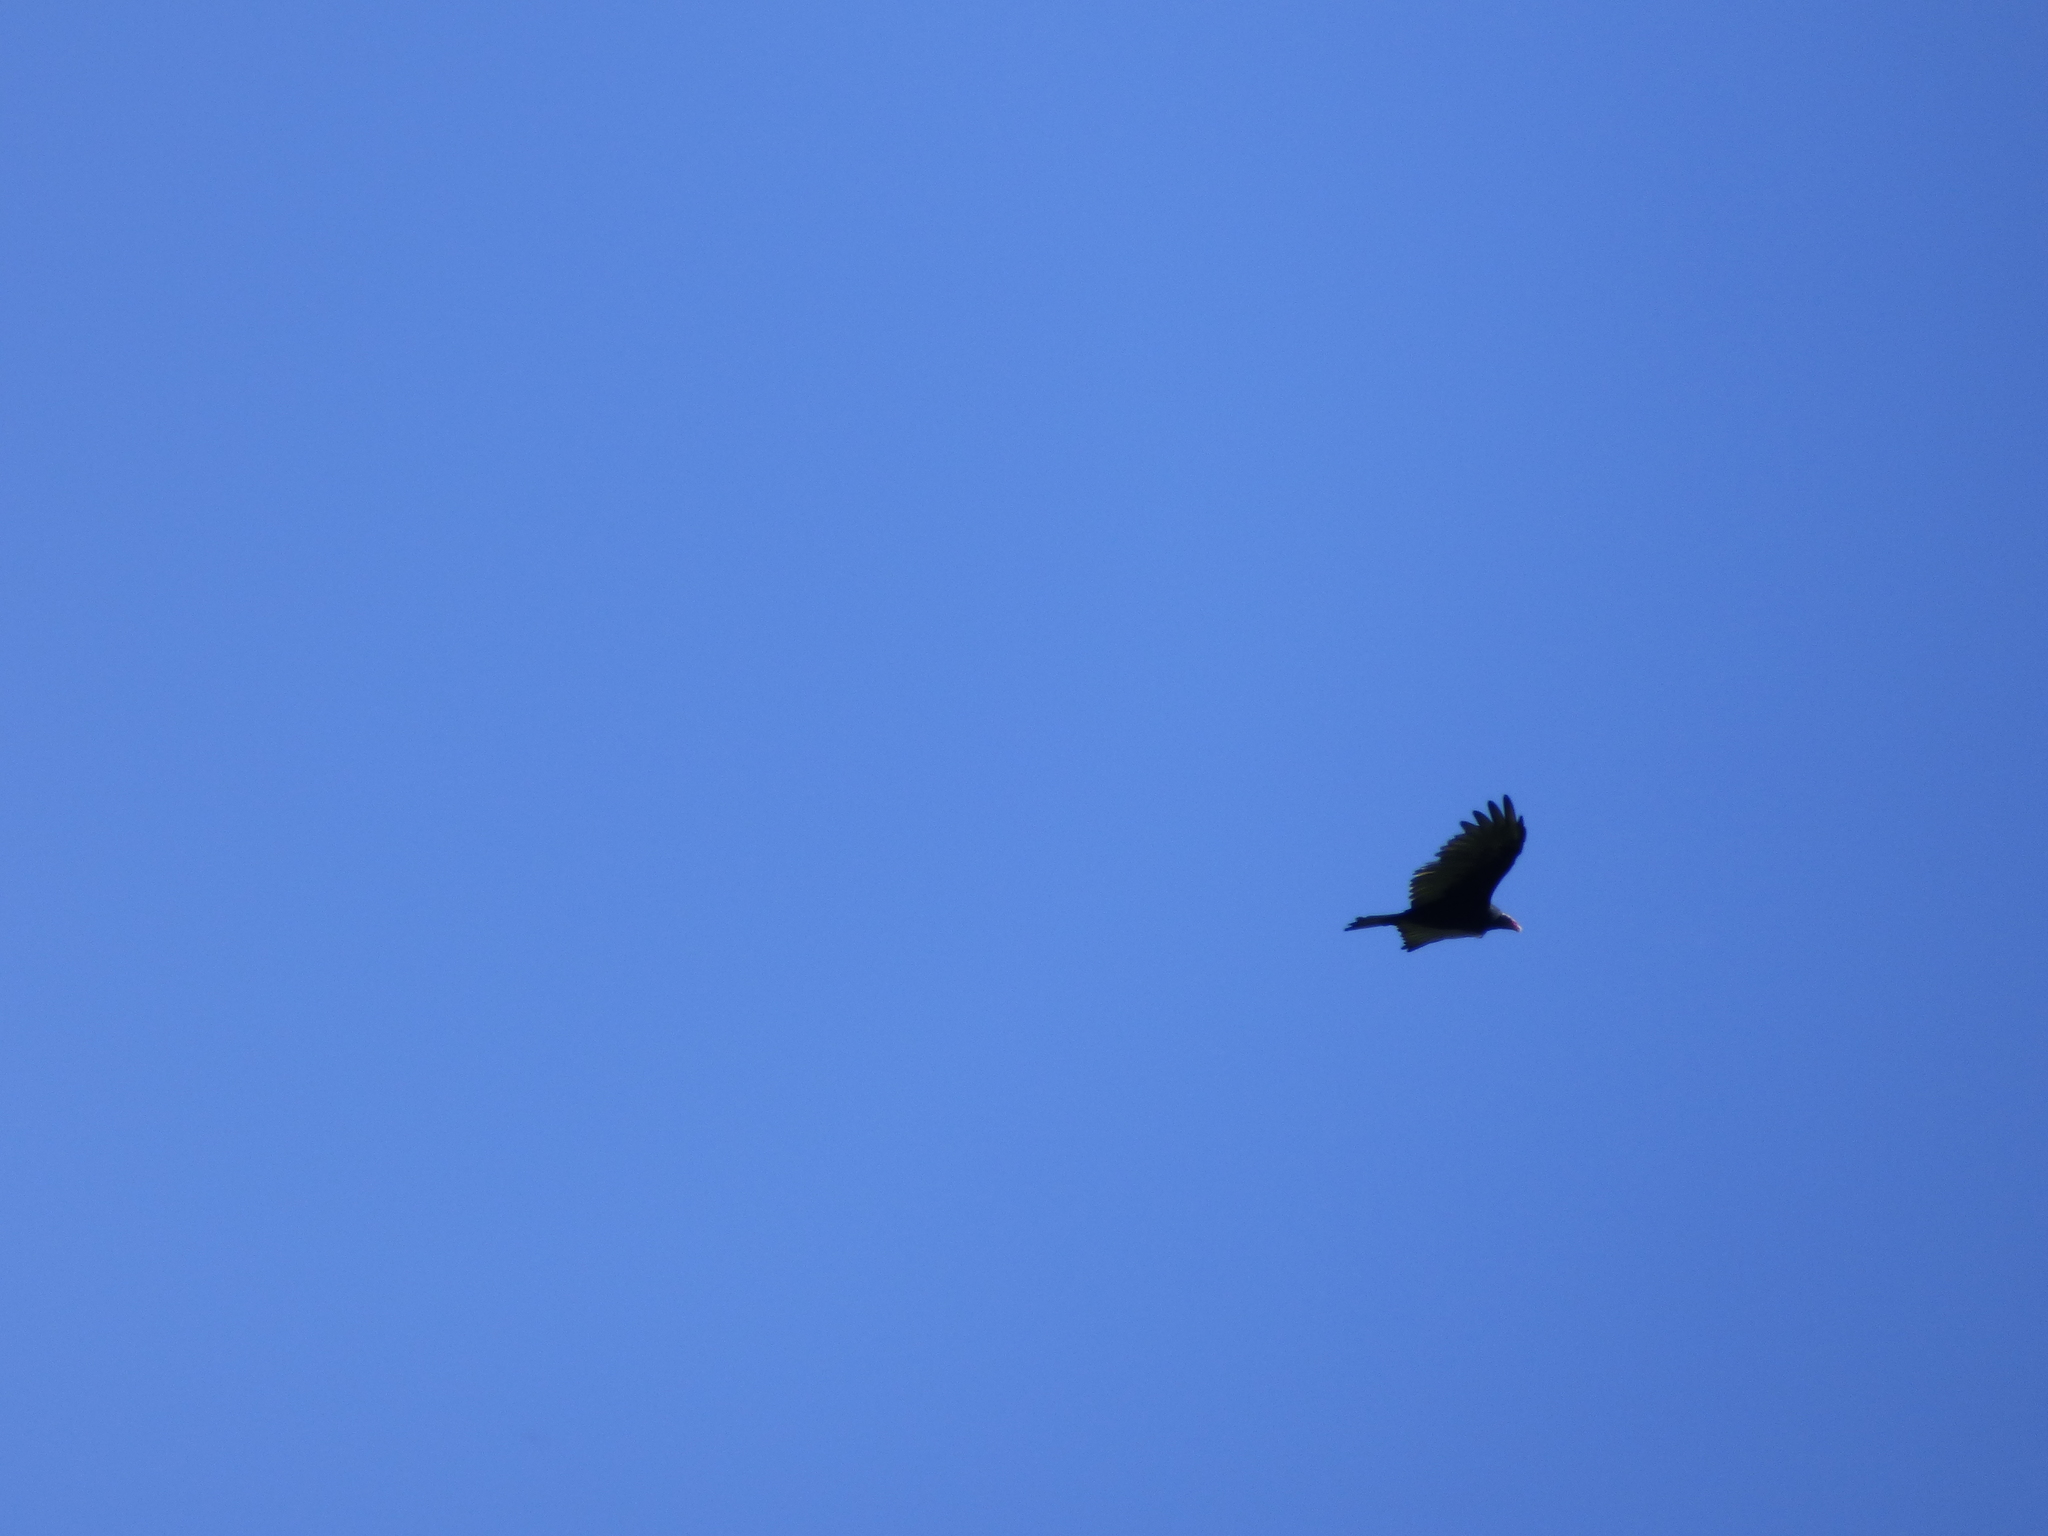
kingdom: Animalia
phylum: Chordata
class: Aves
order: Accipitriformes
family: Cathartidae
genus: Cathartes
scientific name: Cathartes aura
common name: Turkey vulture
